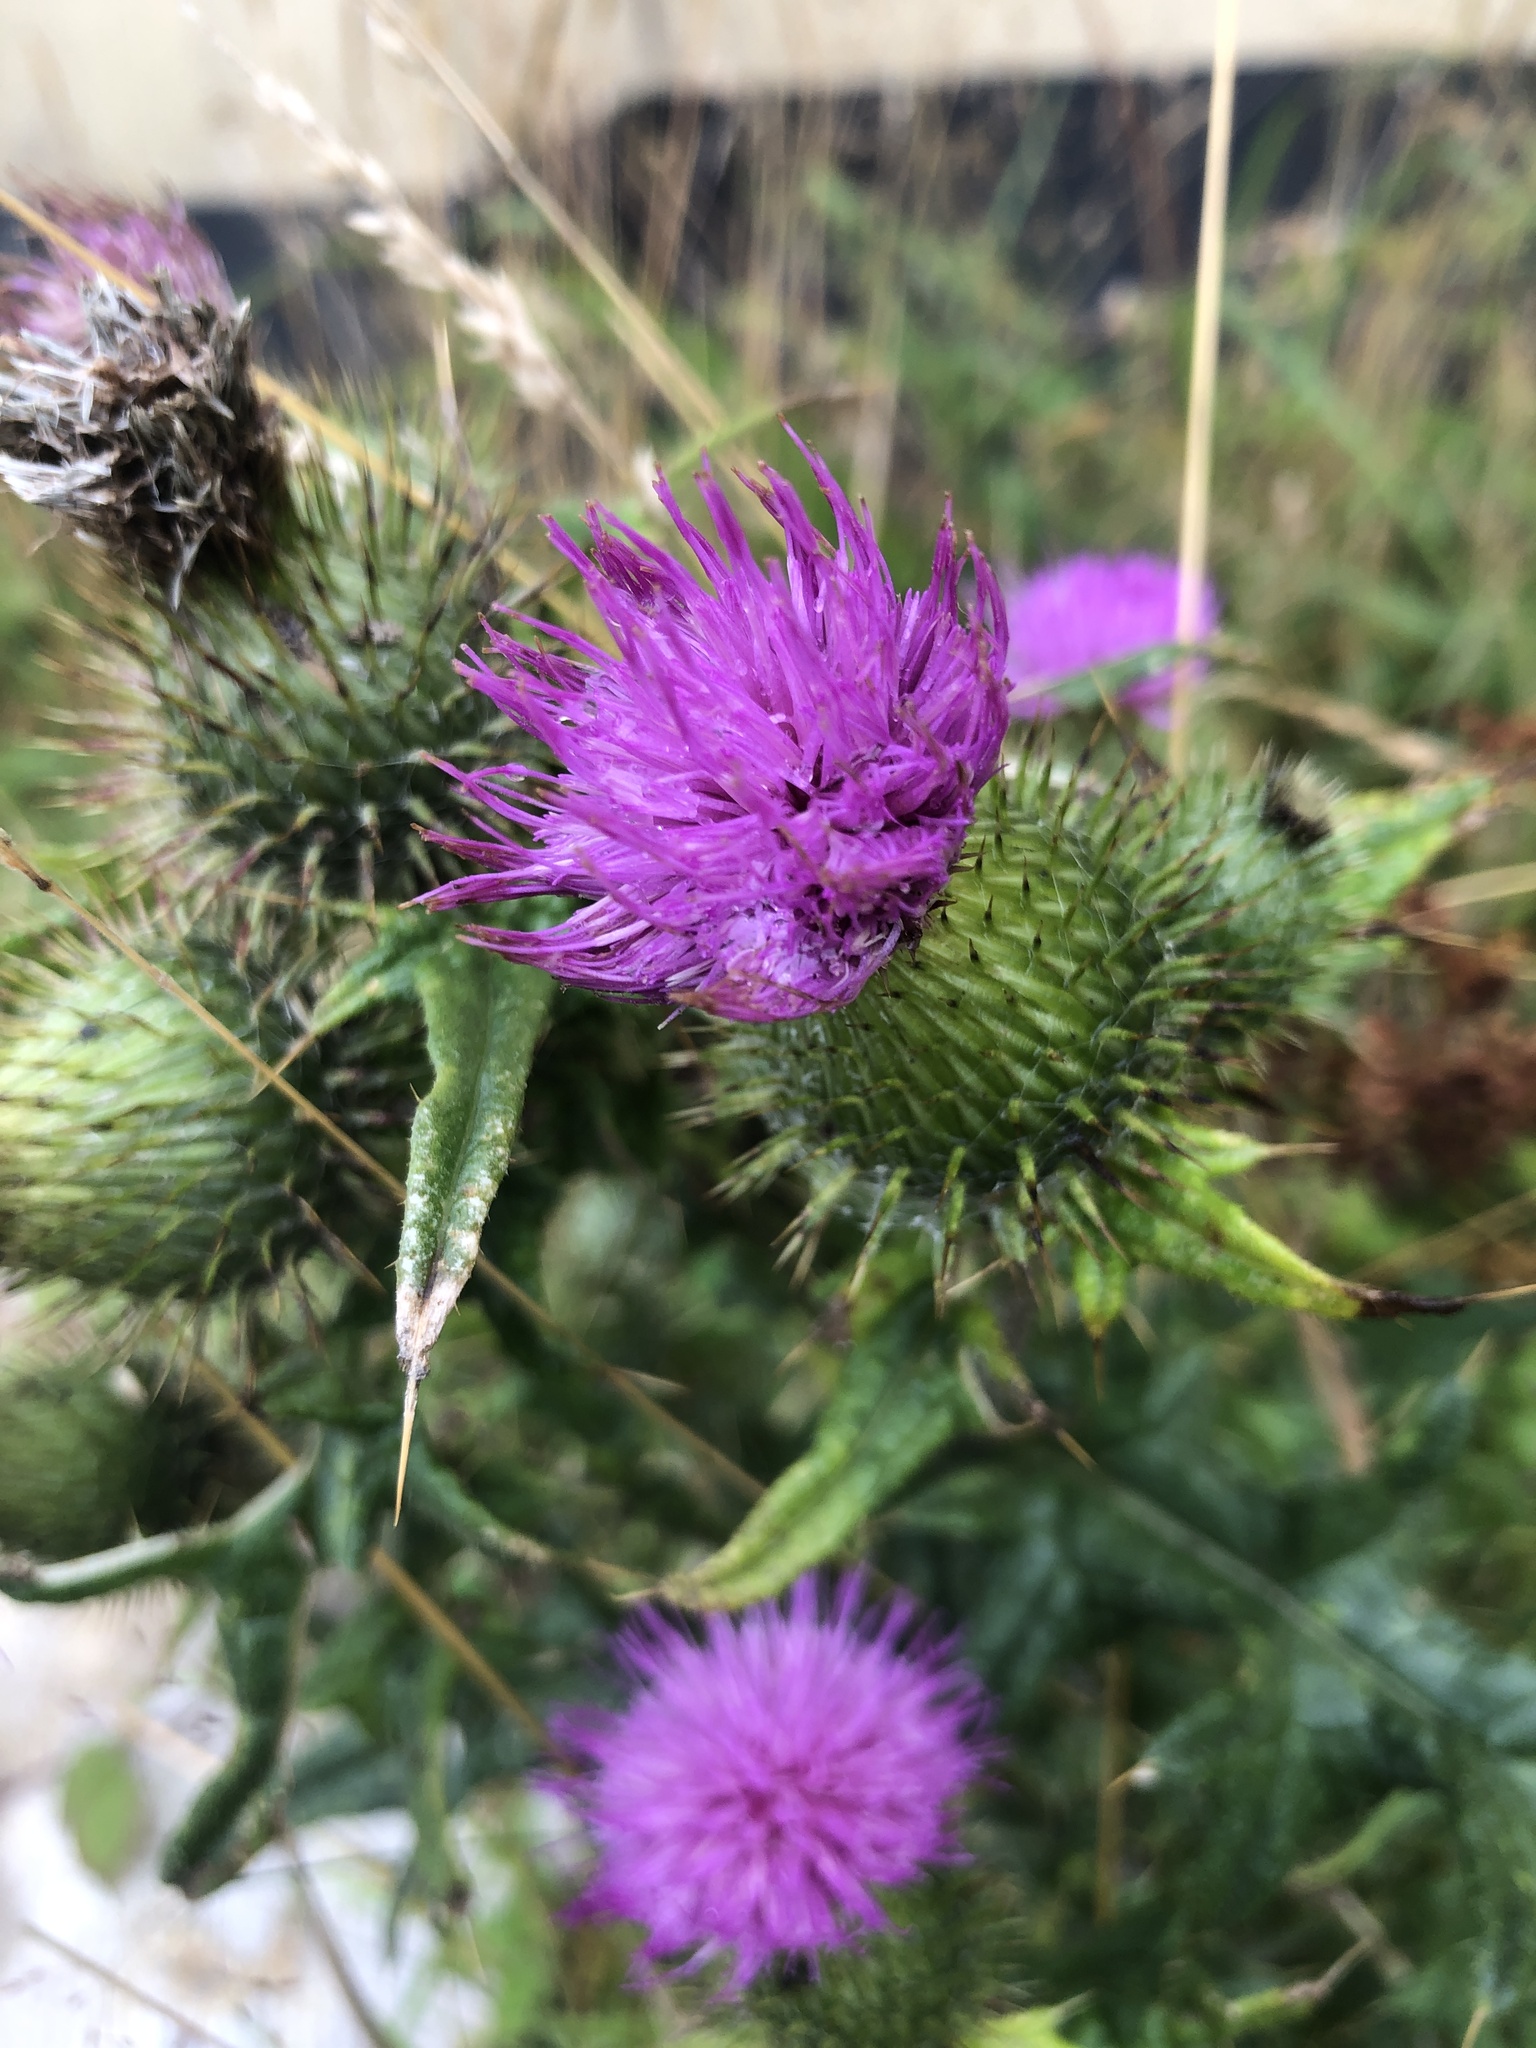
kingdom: Plantae
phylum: Tracheophyta
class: Magnoliopsida
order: Asterales
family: Asteraceae
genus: Cirsium
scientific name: Cirsium vulgare
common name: Bull thistle
